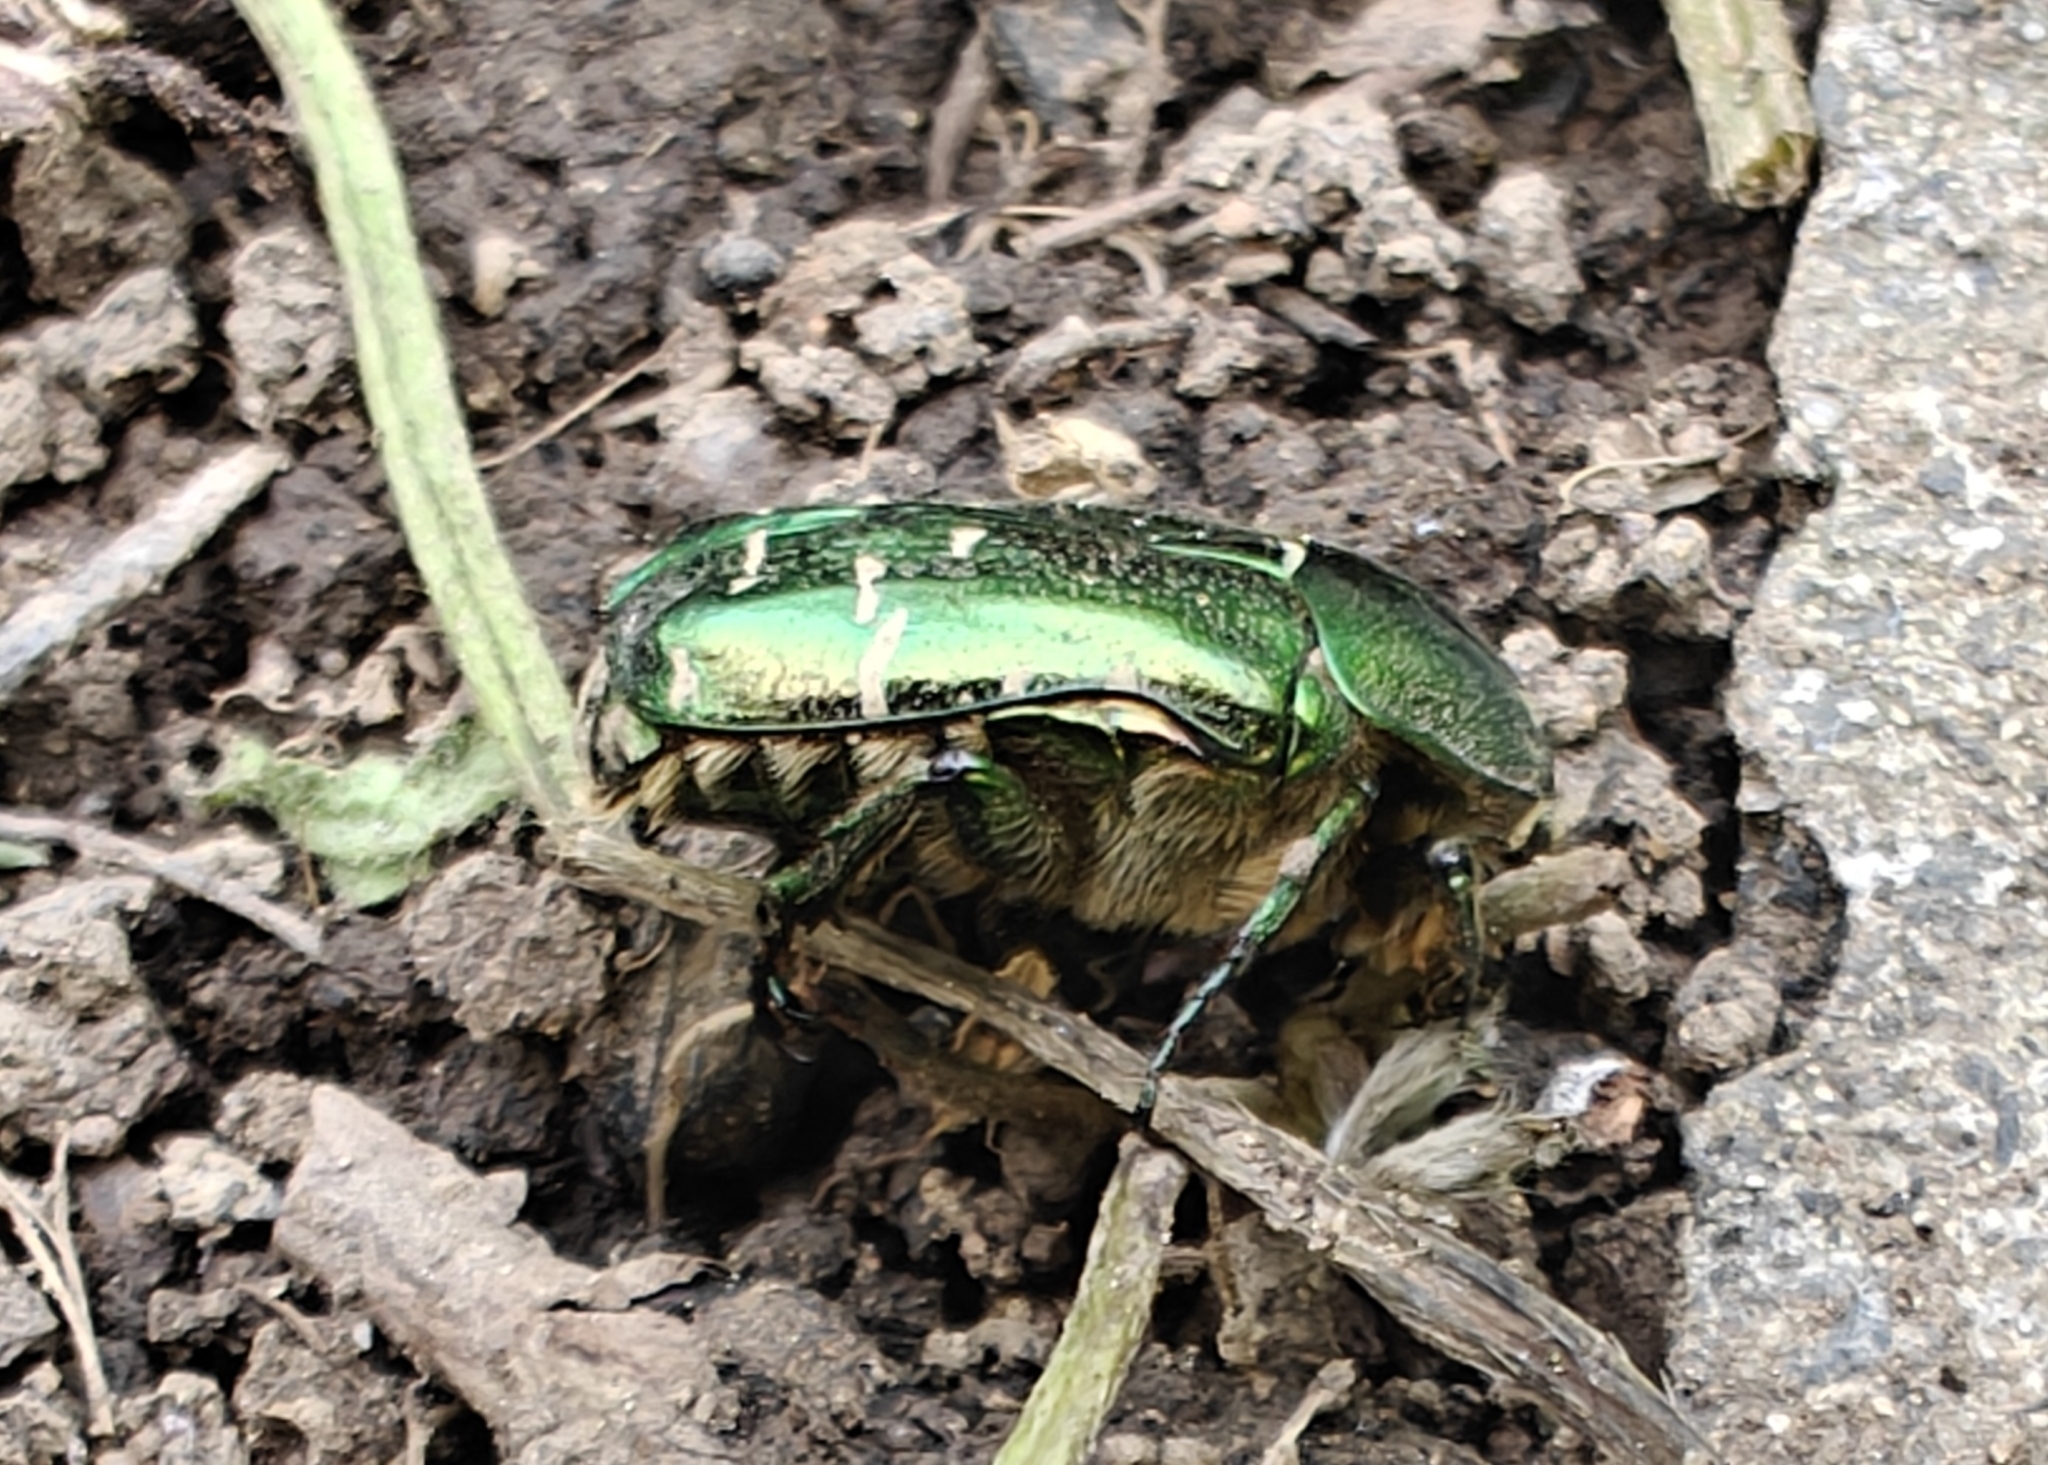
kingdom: Animalia
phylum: Arthropoda
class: Insecta
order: Coleoptera
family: Scarabaeidae
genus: Cetonia
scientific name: Cetonia aurata
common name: Rose chafer
